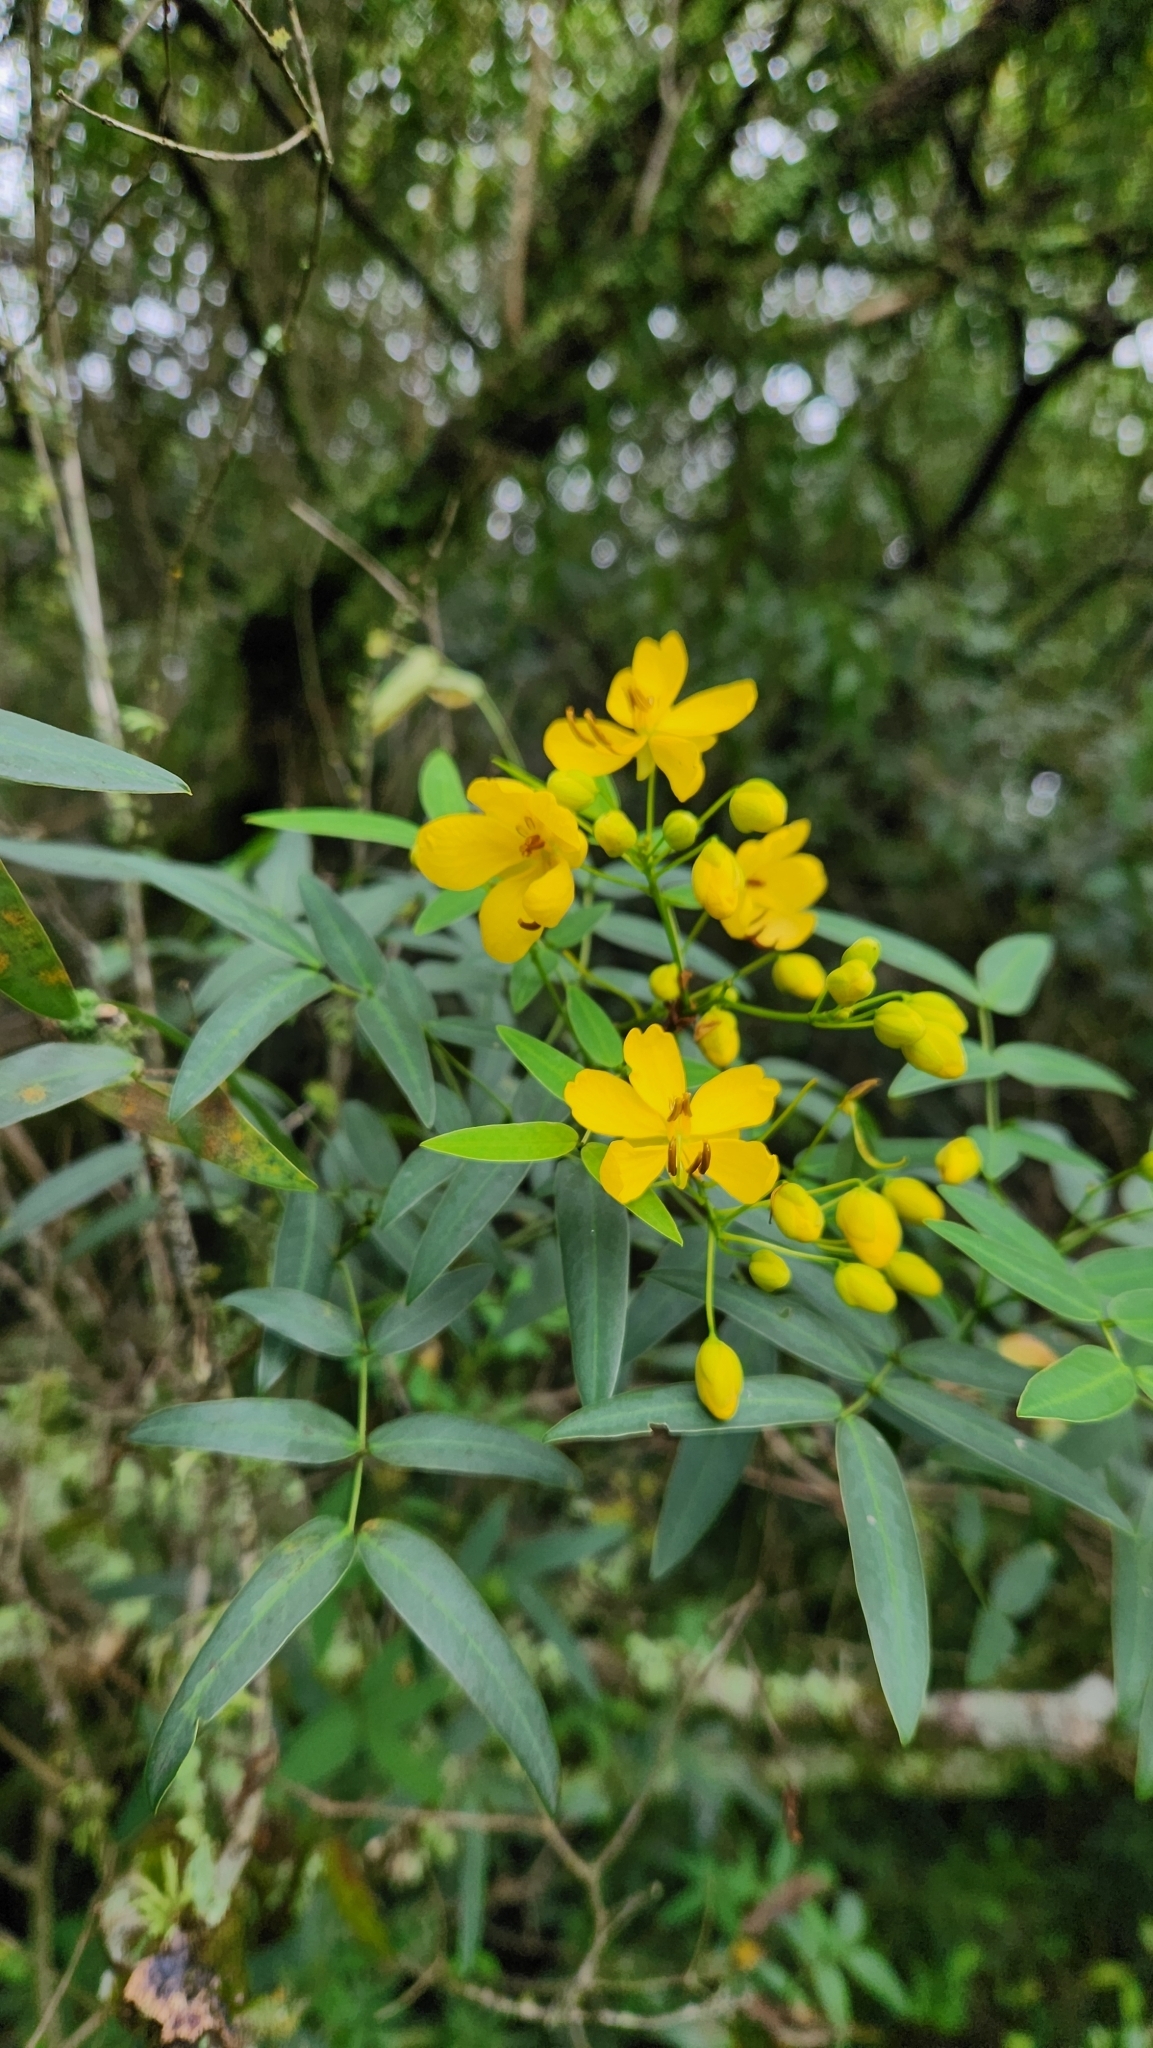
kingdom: Plantae
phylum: Tracheophyta
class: Magnoliopsida
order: Fabales
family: Fabaceae
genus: Senna
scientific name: Senna corymbosa
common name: Argentine senna
